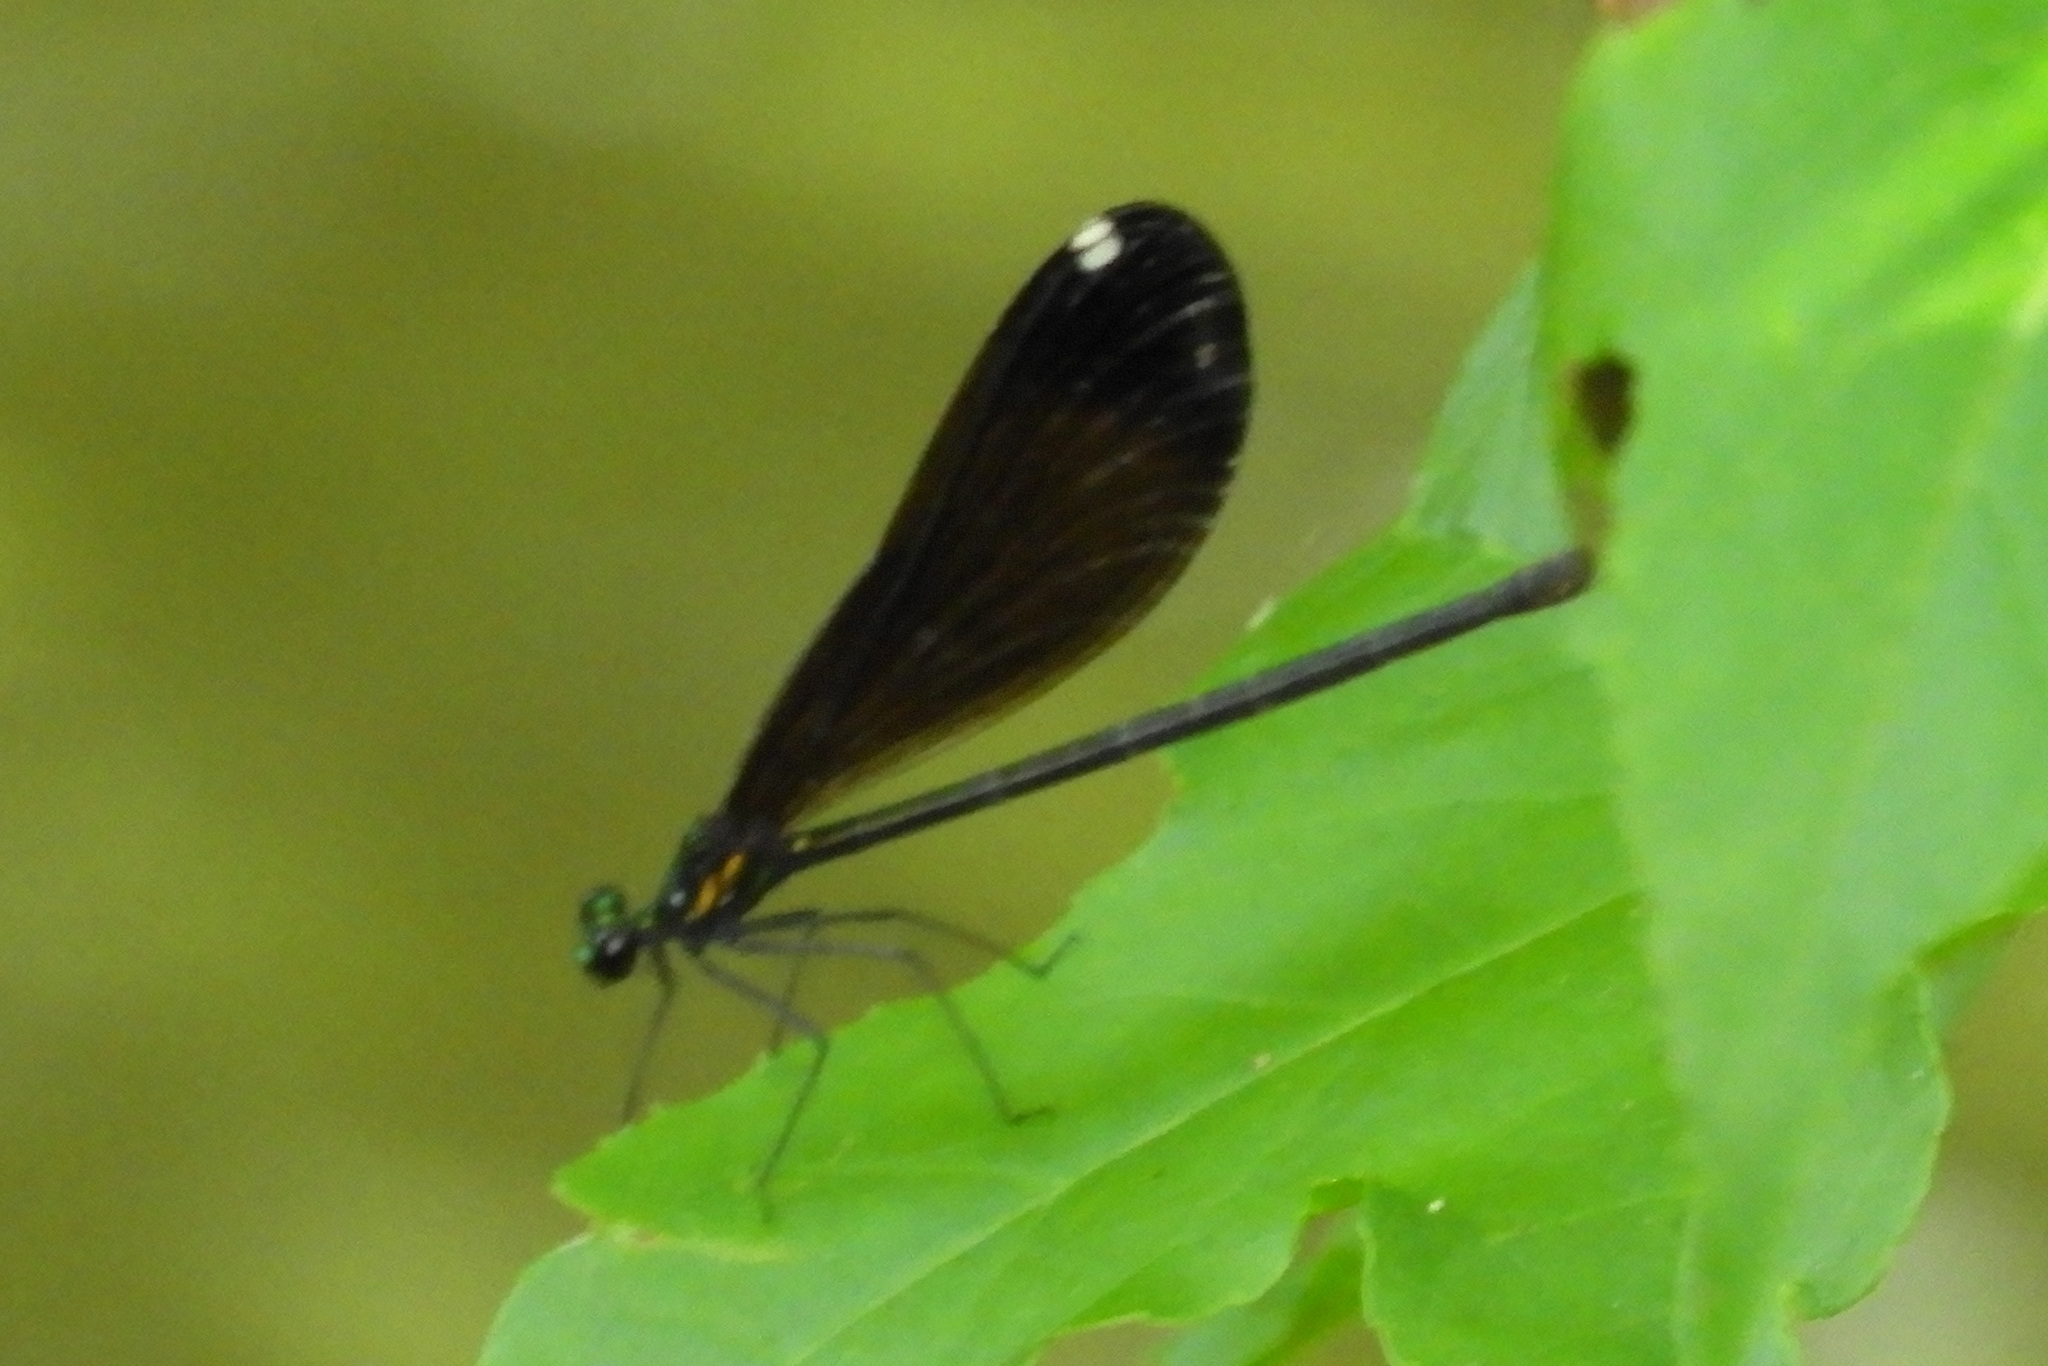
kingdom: Animalia
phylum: Arthropoda
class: Insecta
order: Odonata
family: Calopterygidae
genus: Calopteryx
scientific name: Calopteryx maculata
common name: Ebony jewelwing
